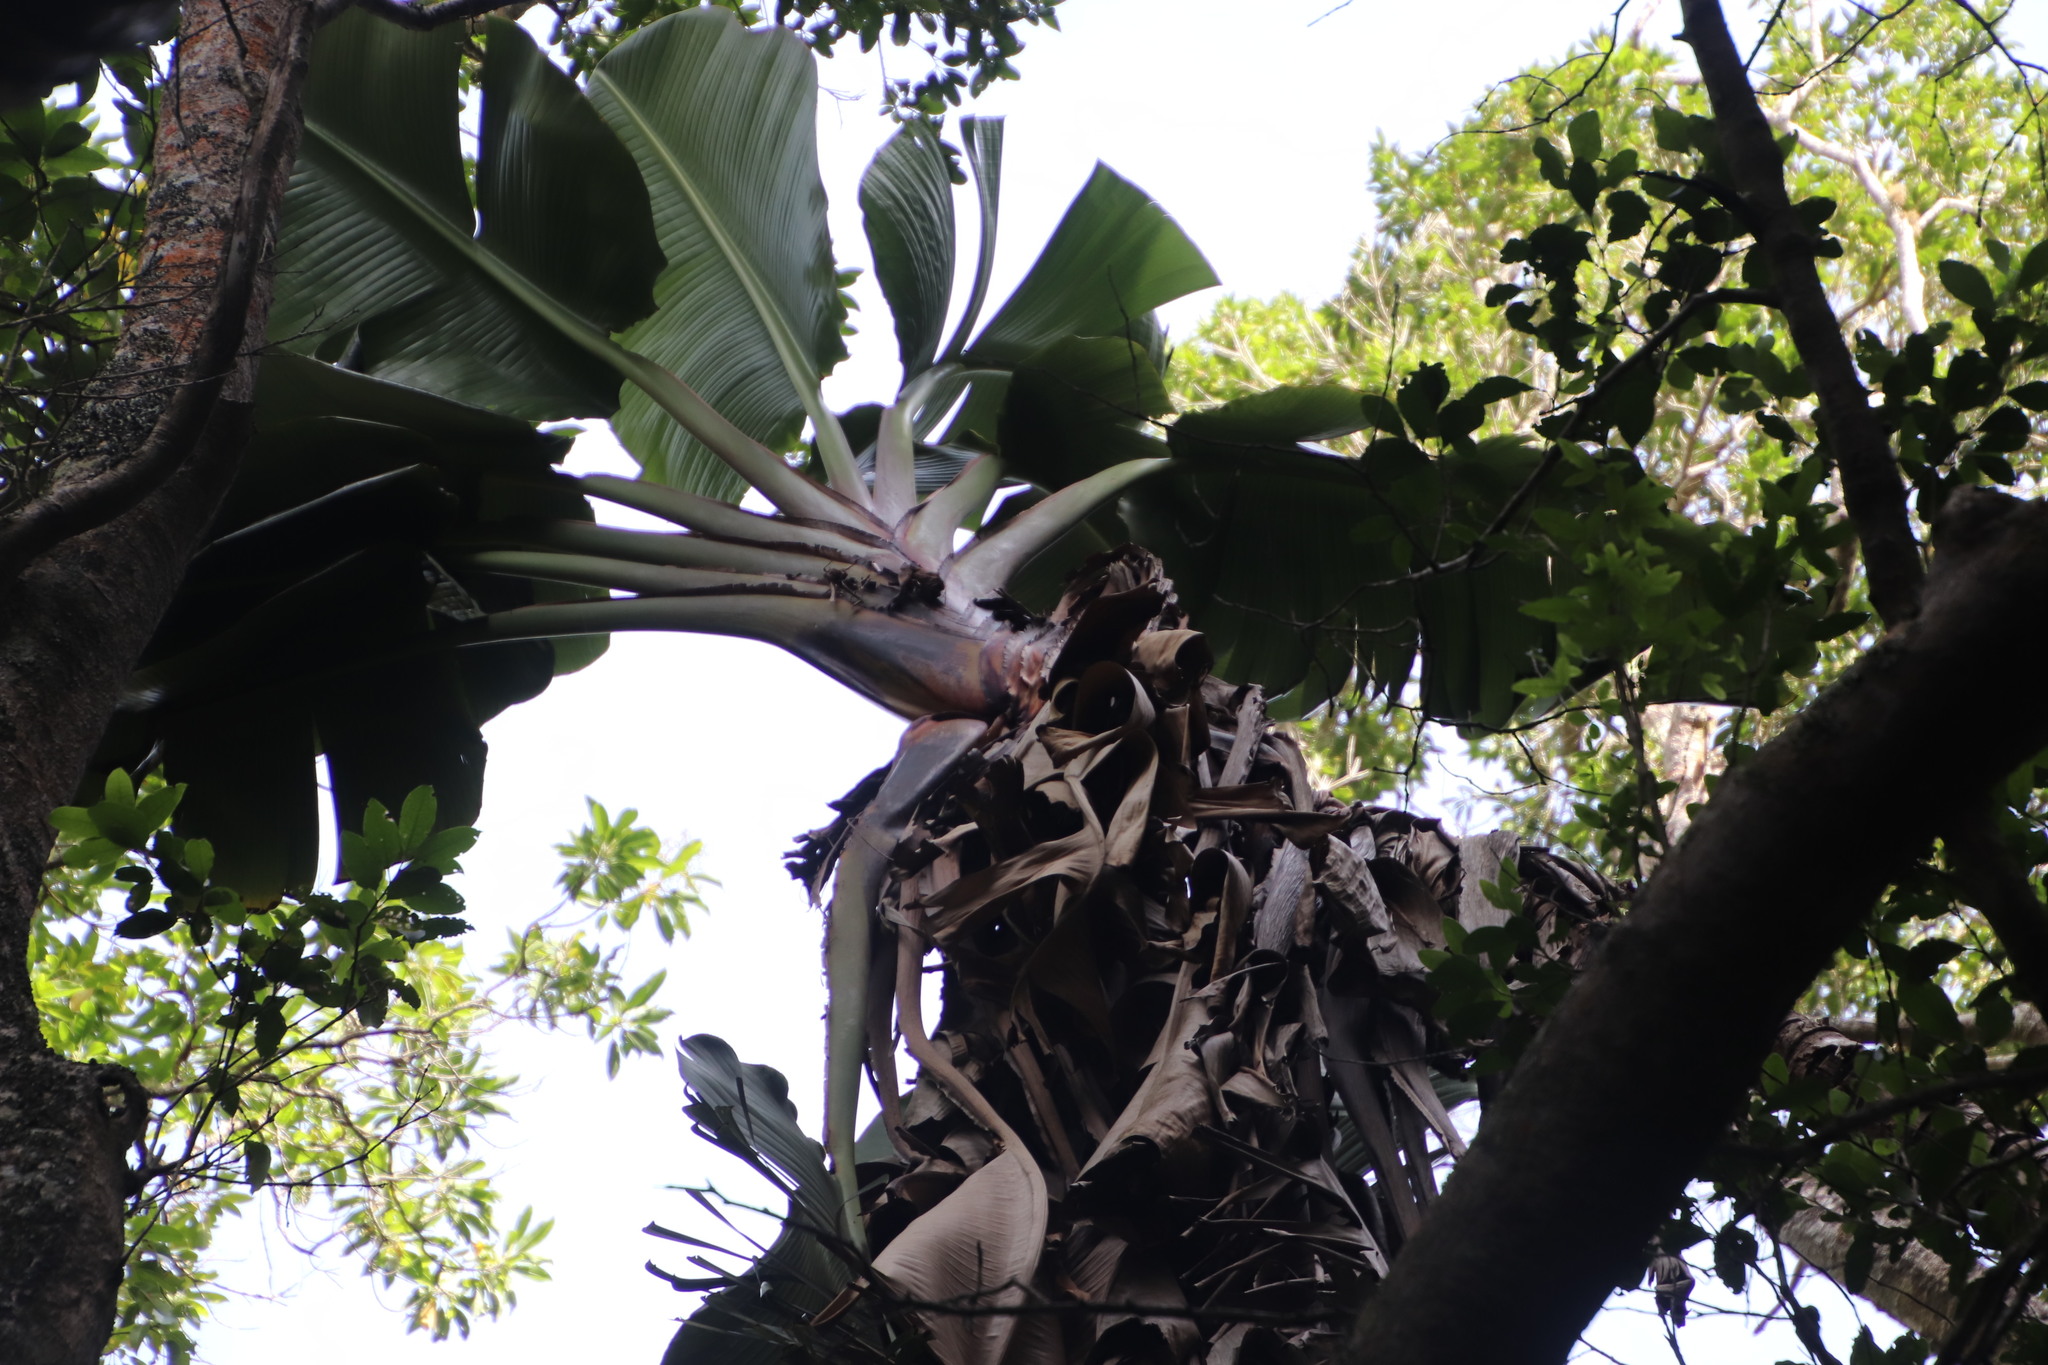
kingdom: Plantae
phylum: Tracheophyta
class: Liliopsida
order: Zingiberales
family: Strelitziaceae
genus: Strelitzia
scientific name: Strelitzia alba
